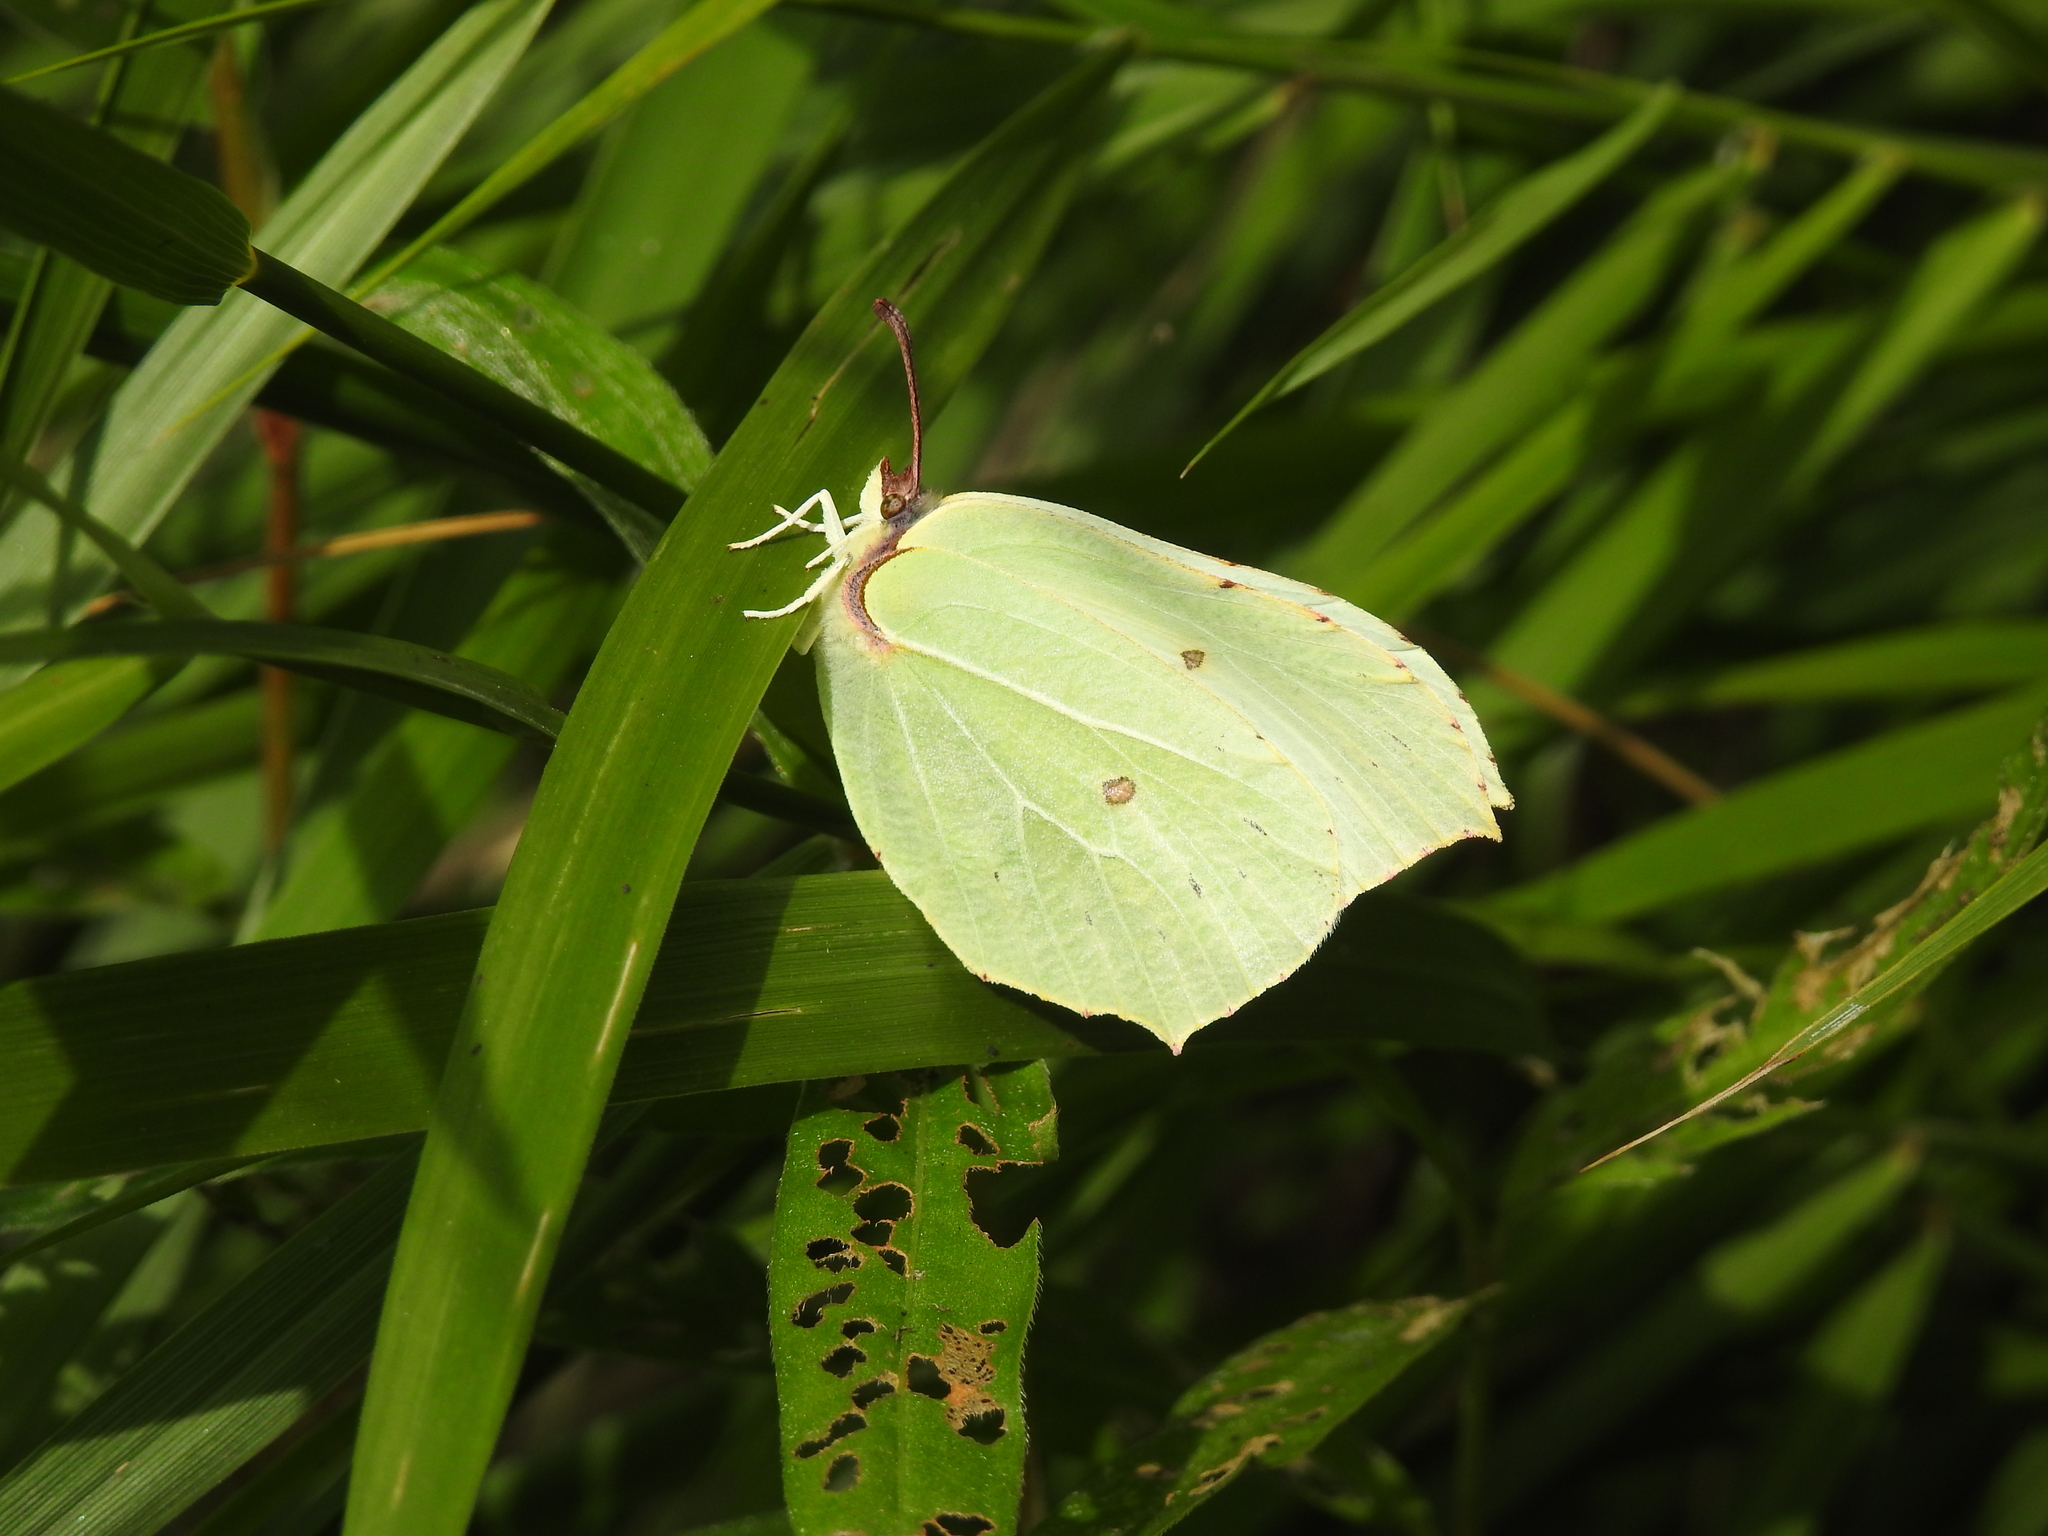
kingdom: Animalia
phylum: Arthropoda
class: Insecta
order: Lepidoptera
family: Pieridae
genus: Gonepteryx
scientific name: Gonepteryx rhamni
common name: Brimstone
